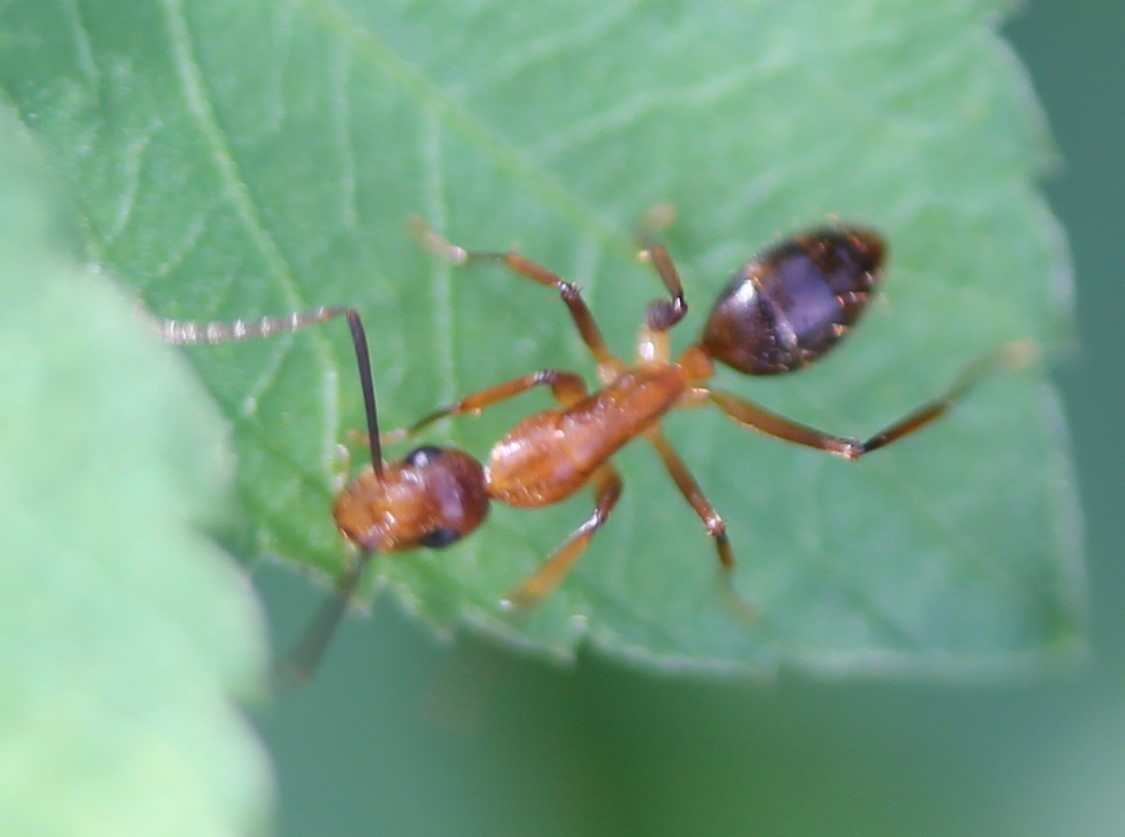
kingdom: Animalia
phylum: Arthropoda
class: Insecta
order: Hymenoptera
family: Formicidae
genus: Camponotus
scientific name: Camponotus inaequalis
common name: Ant
